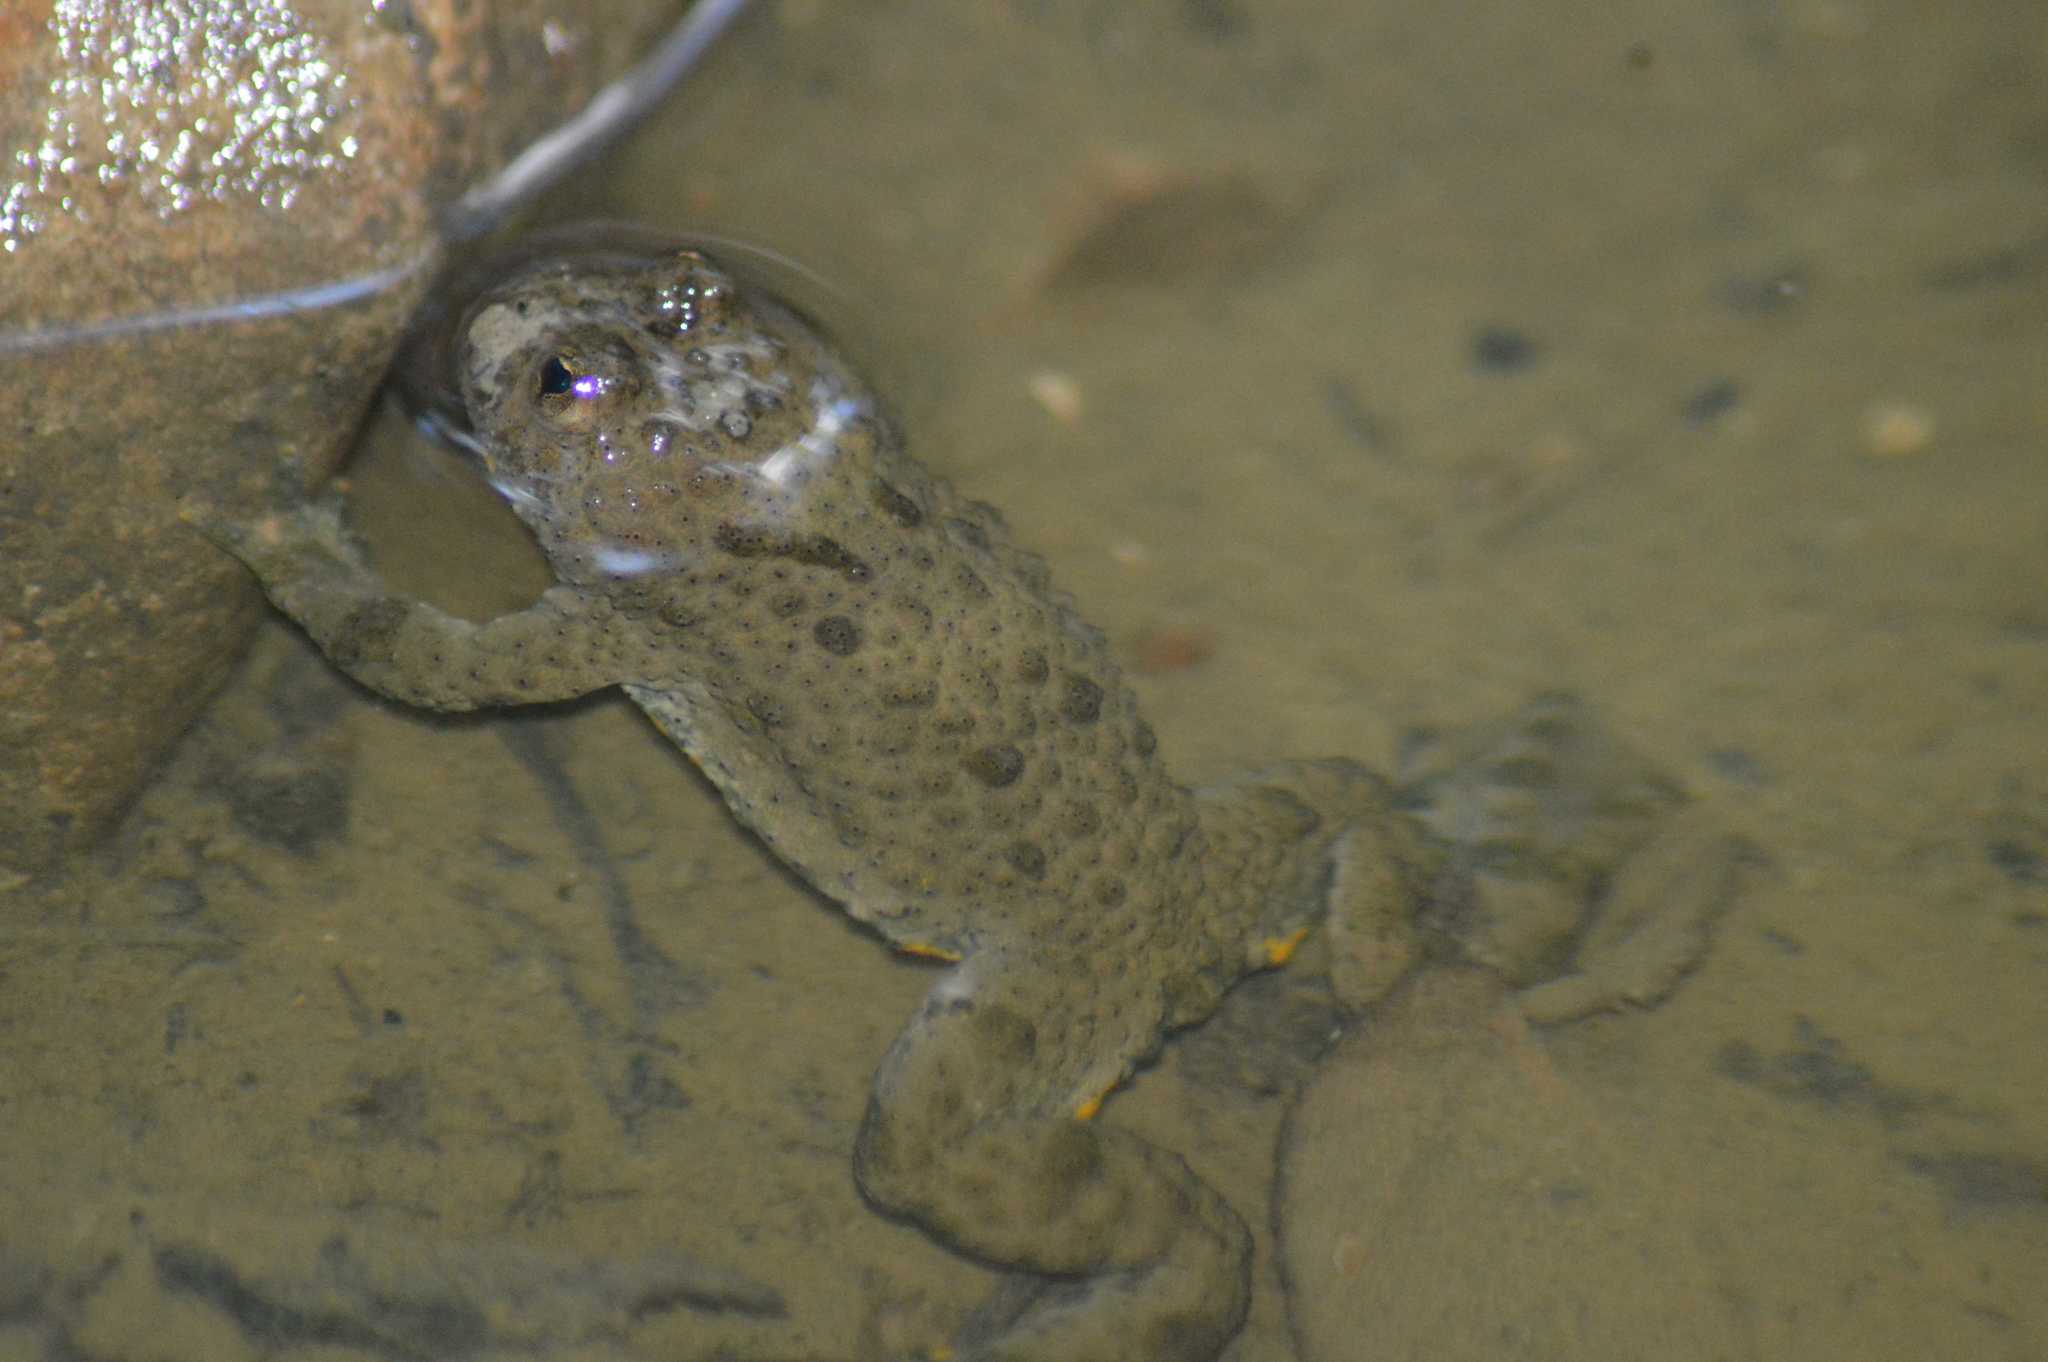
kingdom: Animalia
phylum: Chordata
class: Amphibia
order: Anura
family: Bombinatoridae
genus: Bombina
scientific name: Bombina variegata
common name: Yellow-bellied toad
